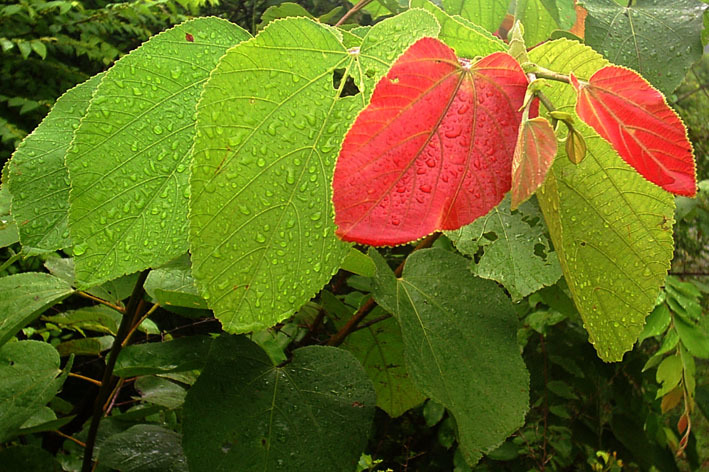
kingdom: Plantae
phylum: Tracheophyta
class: Magnoliopsida
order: Malvales
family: Malvaceae
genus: Grewia
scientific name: Grewia tiliifolia
